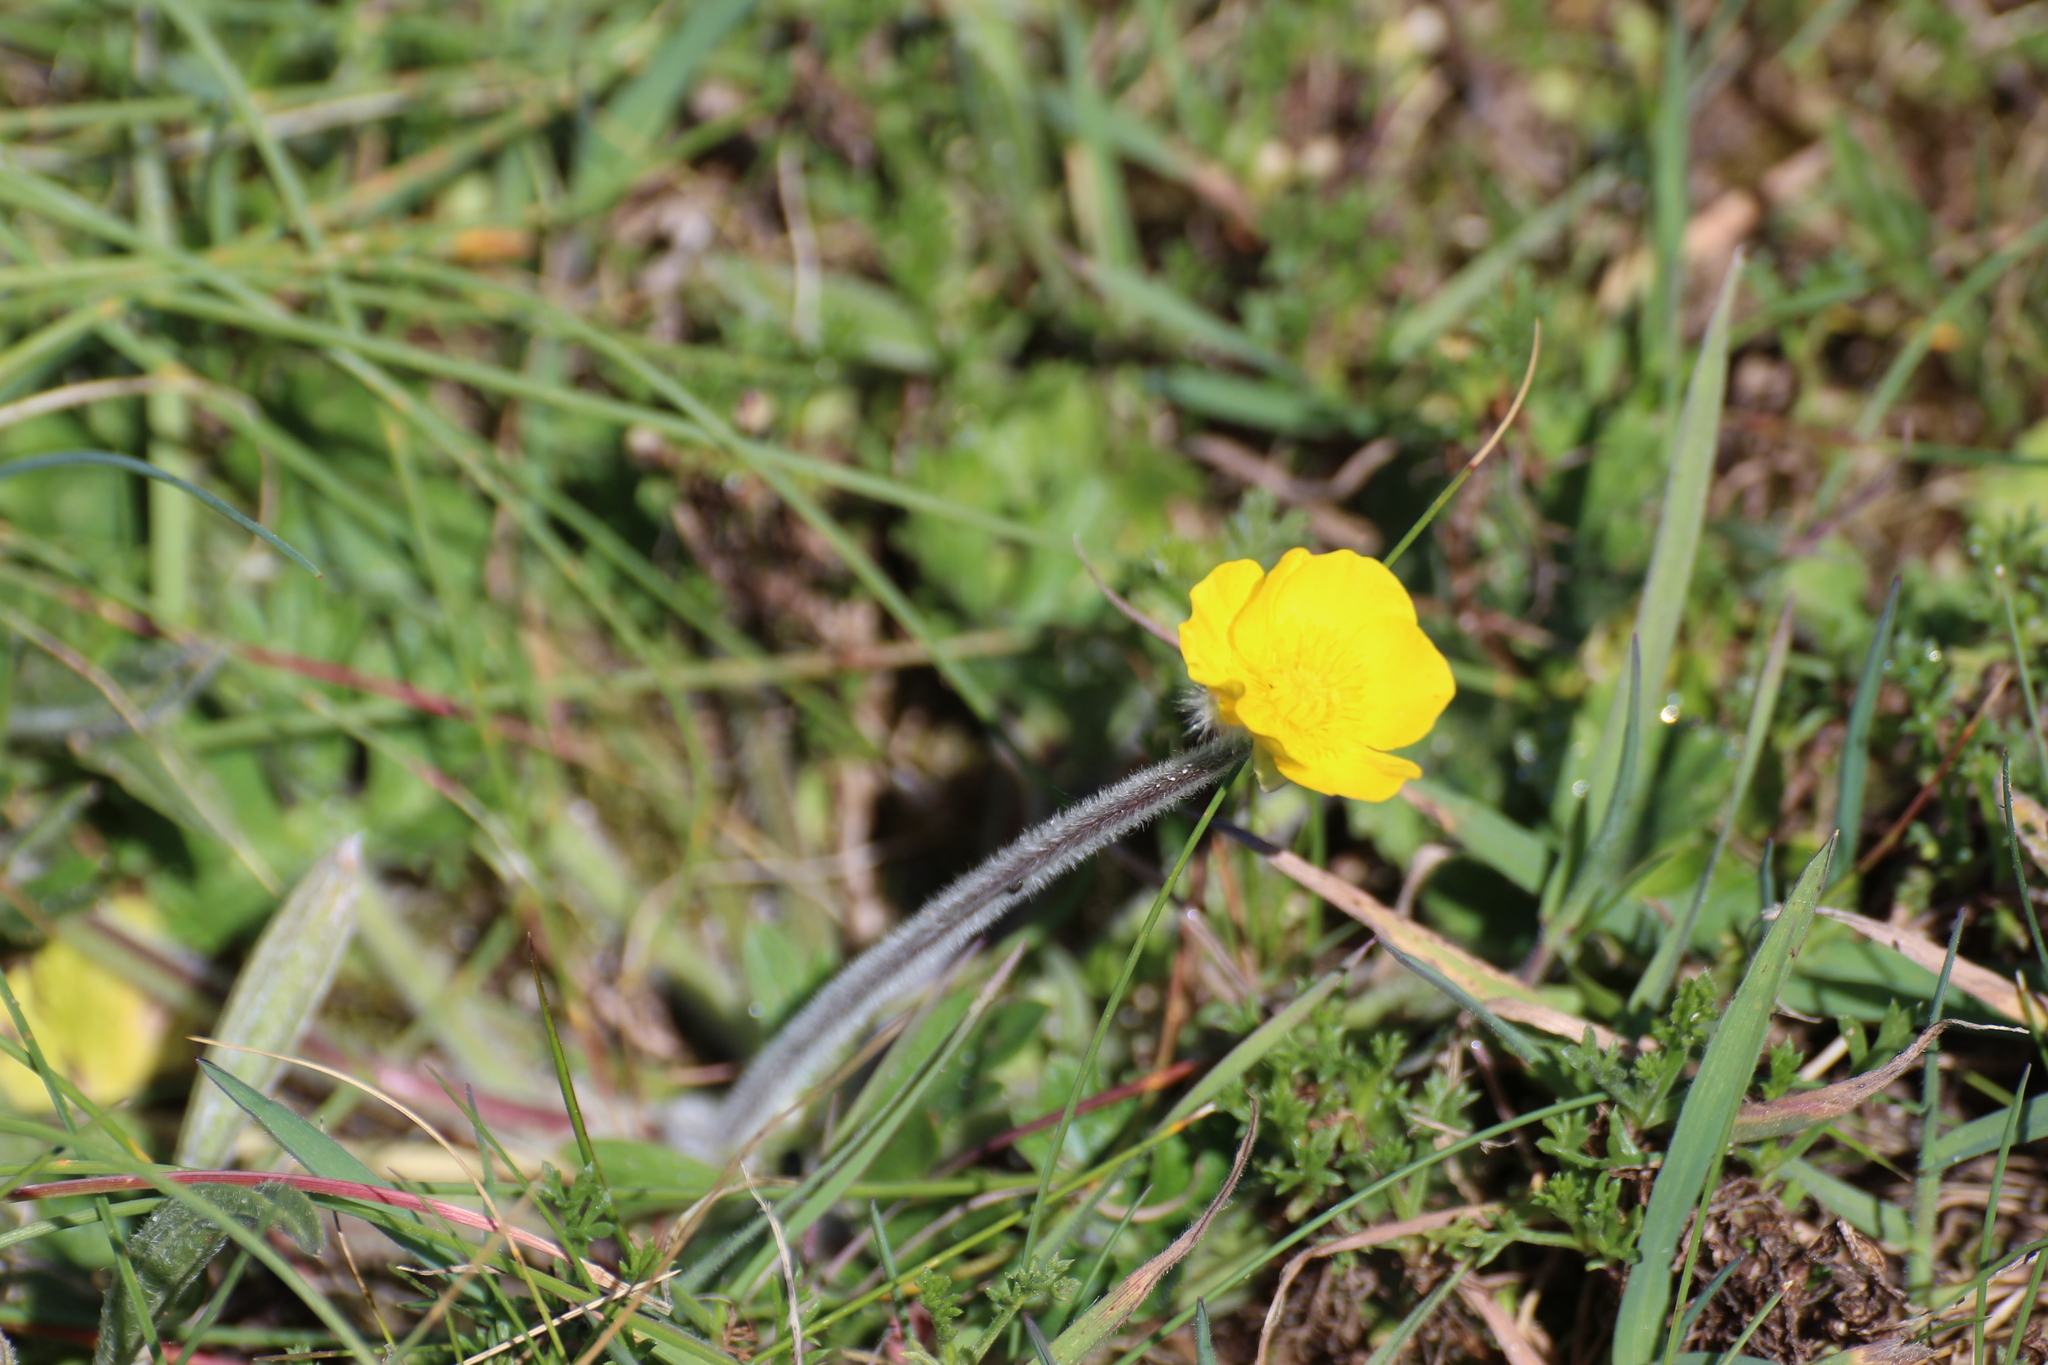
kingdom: Plantae
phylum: Tracheophyta
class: Magnoliopsida
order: Ranunculales
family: Ranunculaceae
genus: Ranunculus
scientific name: Ranunculus bulbosus
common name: Bulbous buttercup
